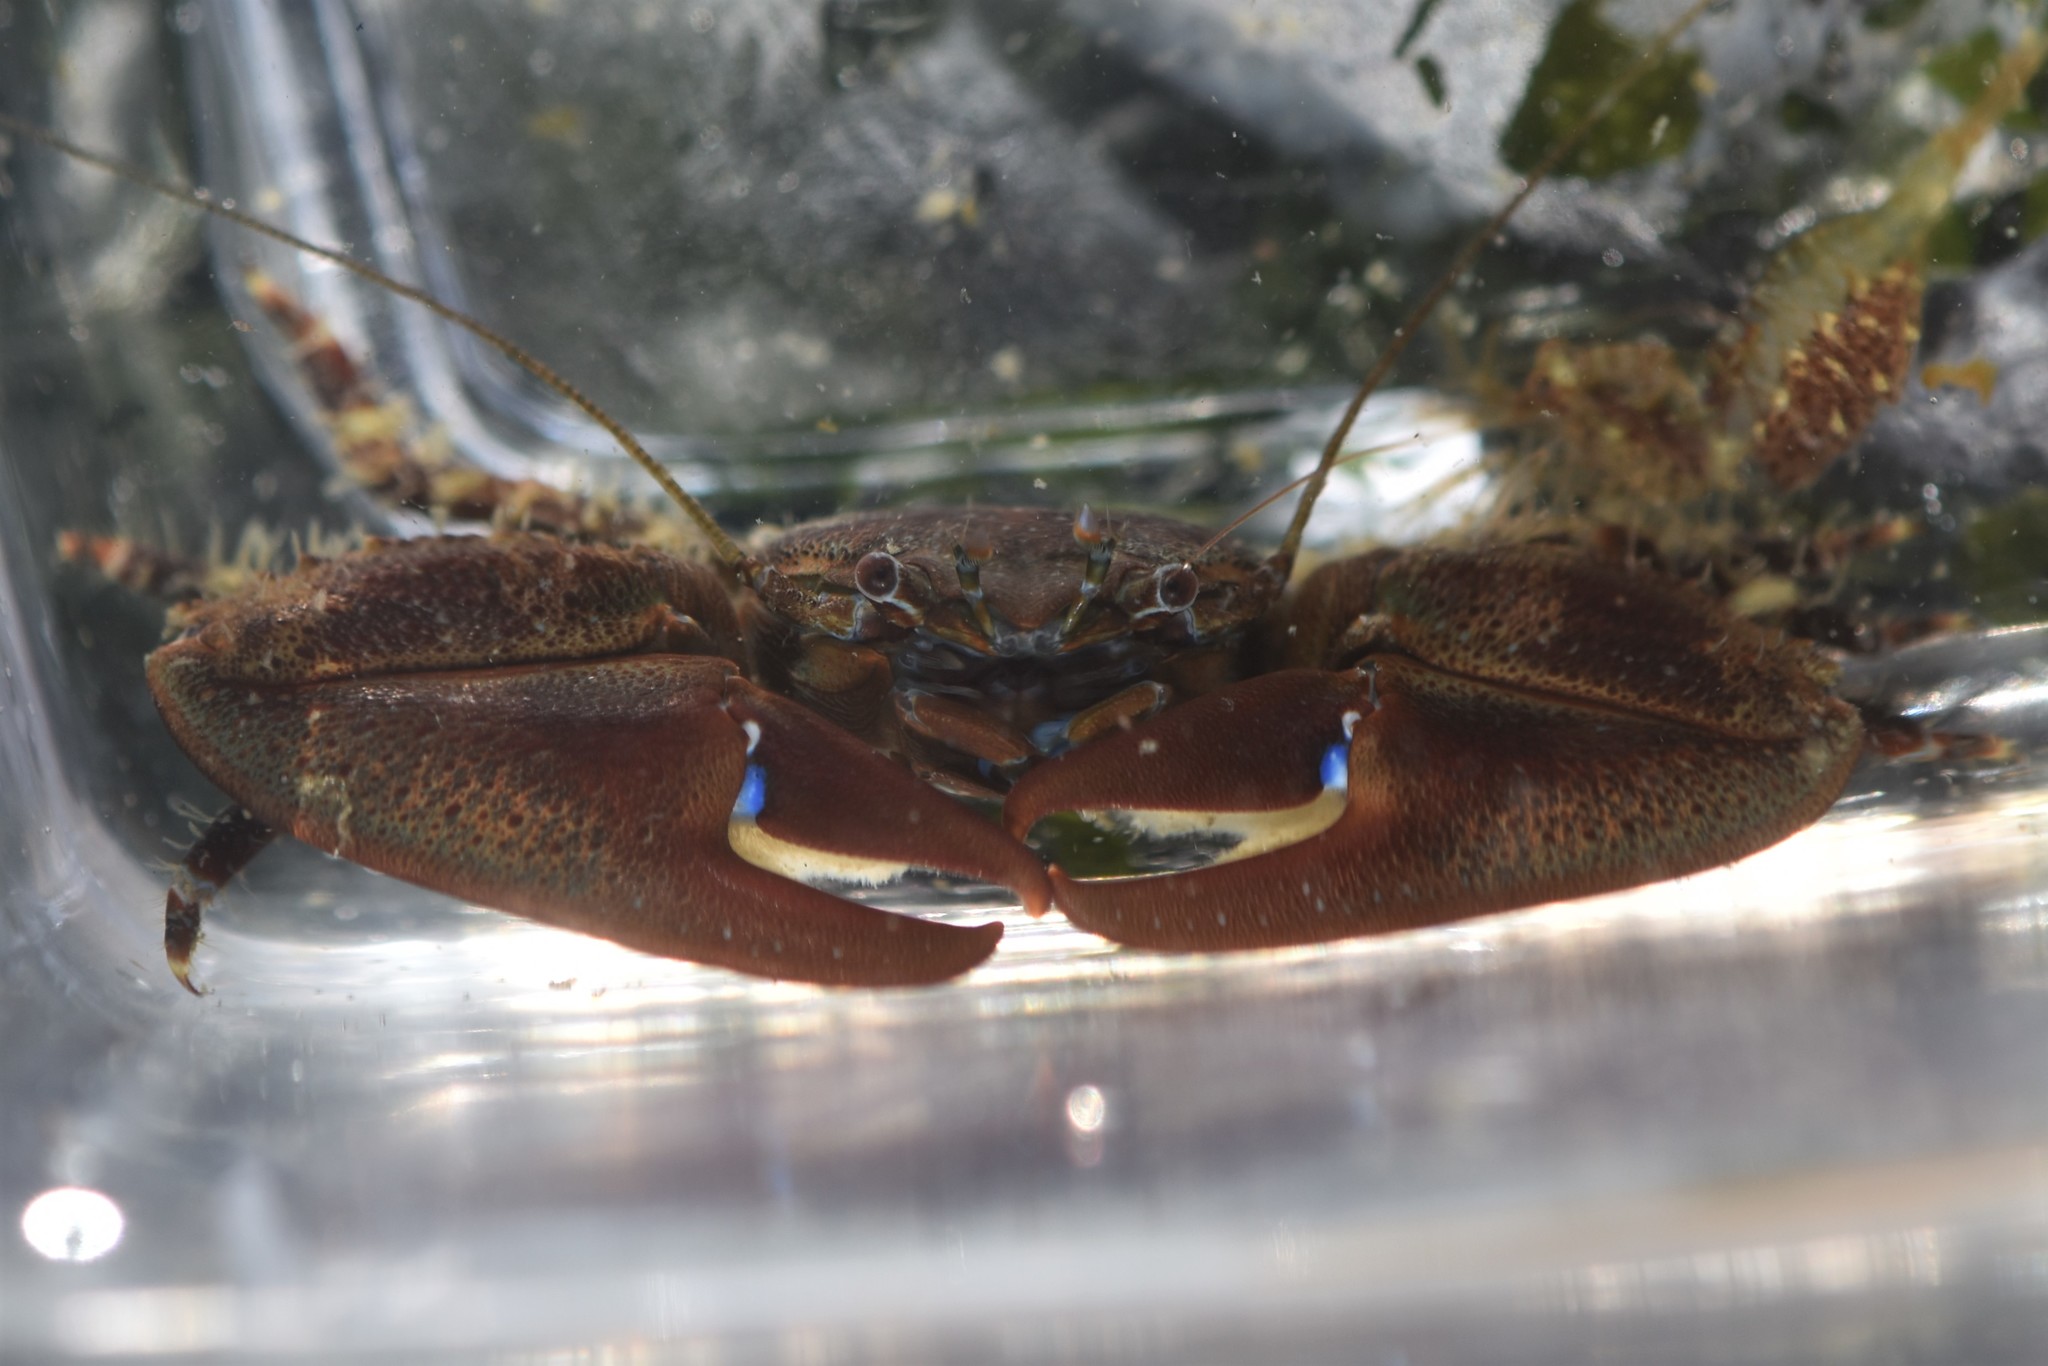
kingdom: Animalia
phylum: Arthropoda
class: Malacostraca
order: Decapoda
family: Porcellanidae
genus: Petrolisthes
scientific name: Petrolisthes eriomerus
